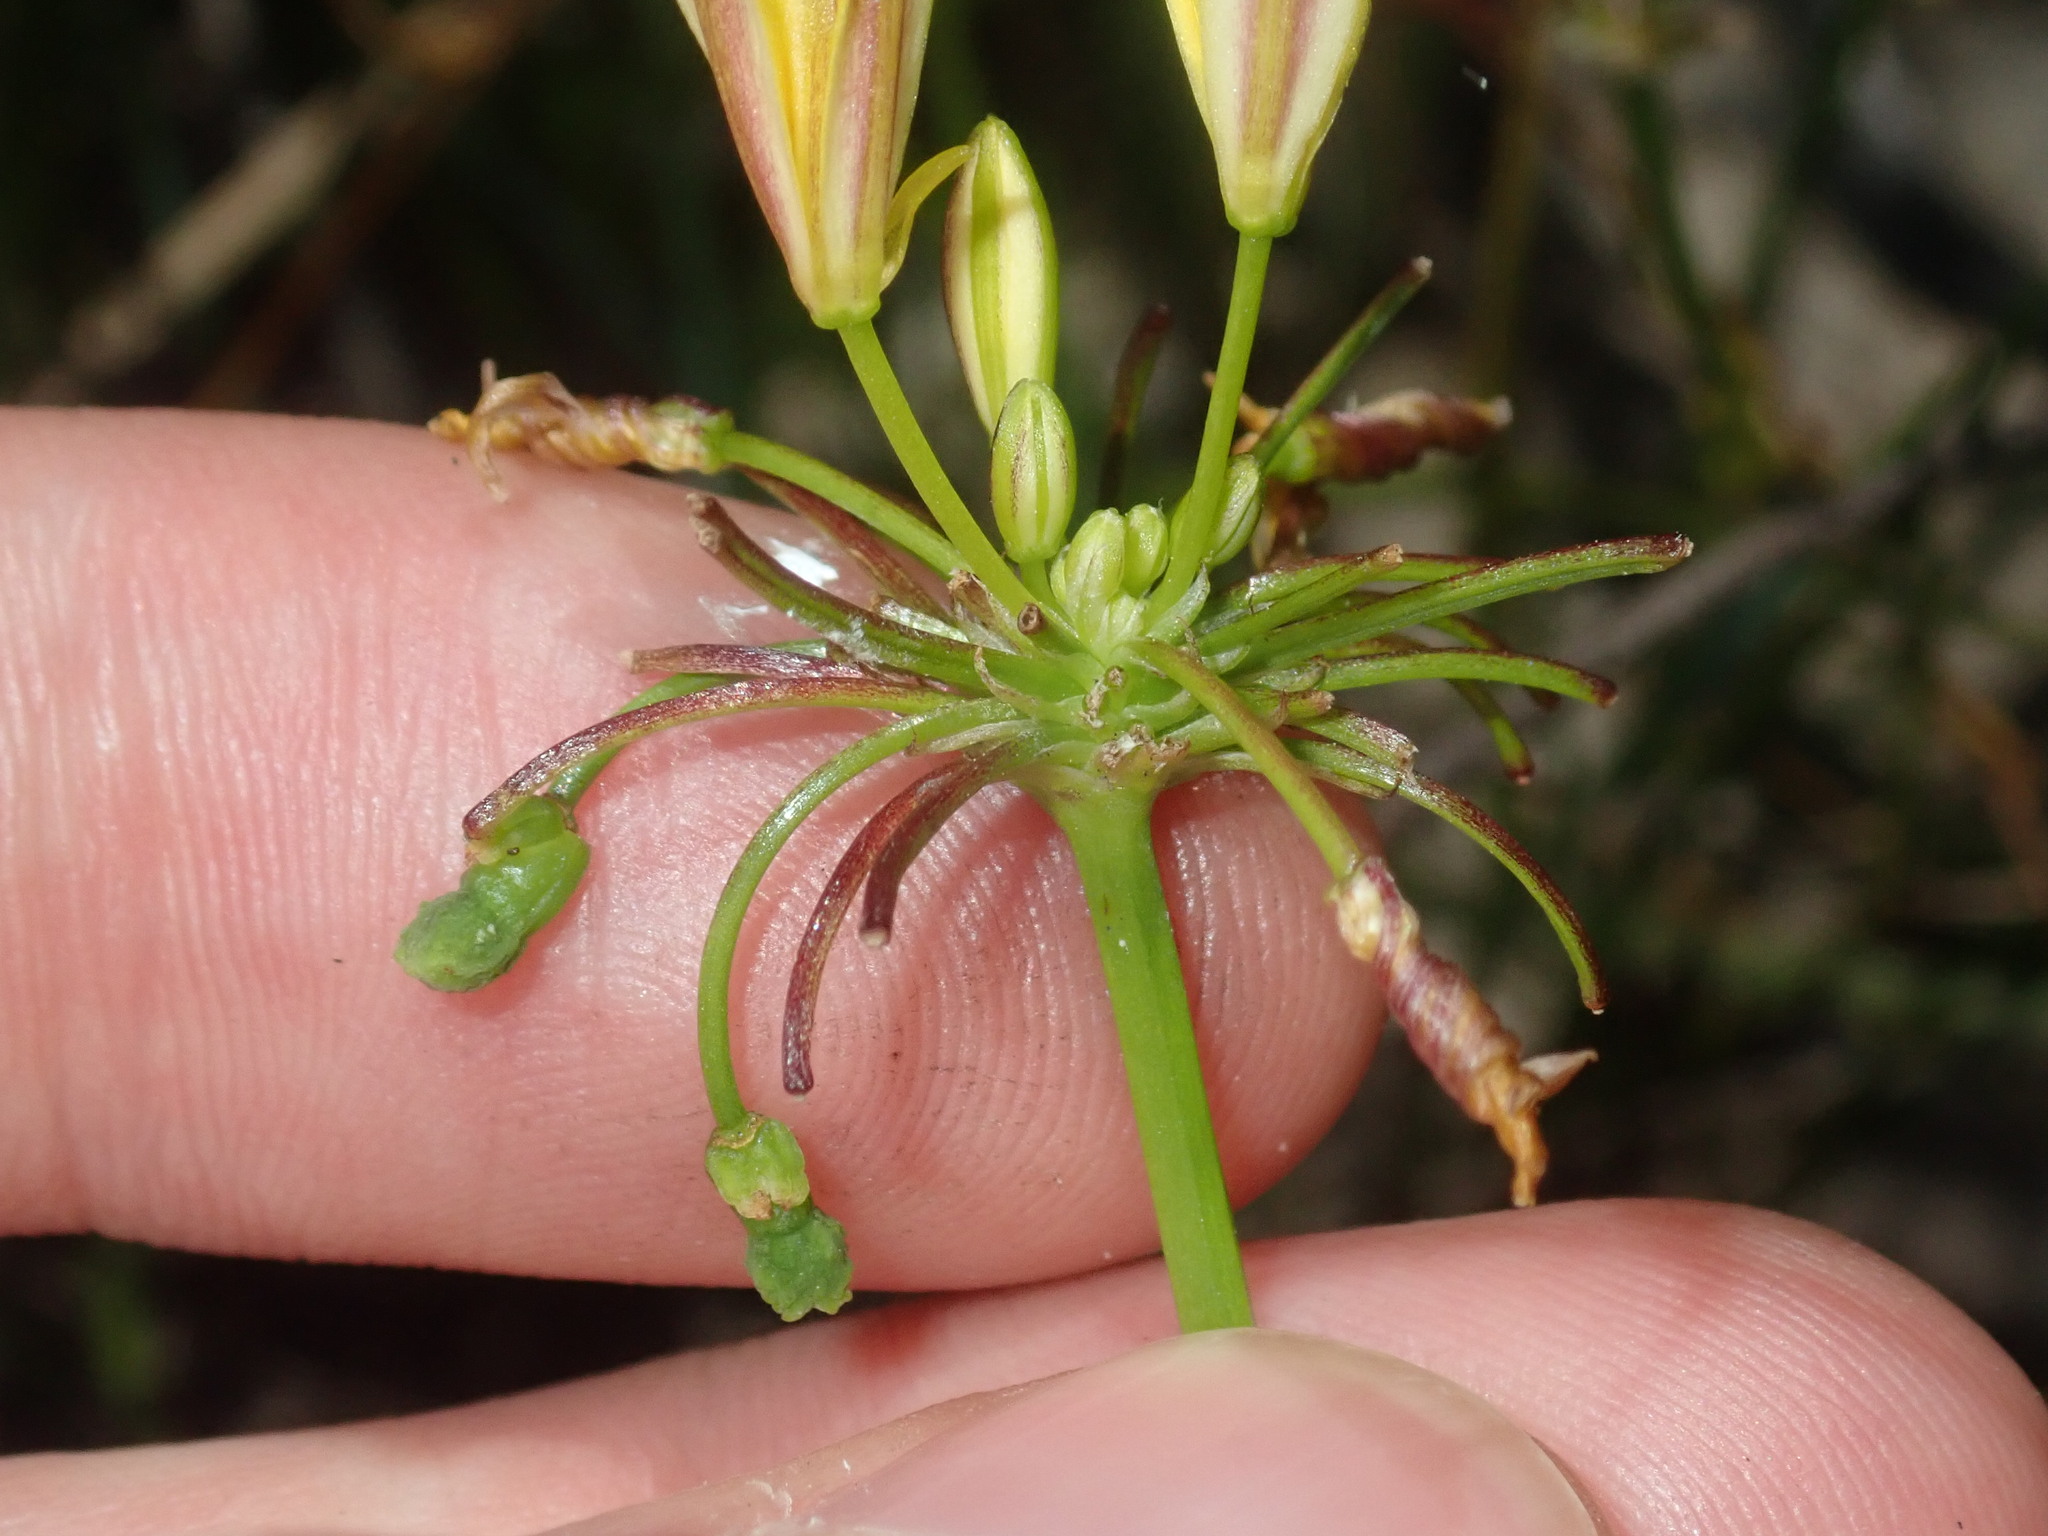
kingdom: Plantae
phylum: Tracheophyta
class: Liliopsida
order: Asparagales
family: Asphodelaceae
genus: Tricoryne
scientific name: Tricoryne simplex
